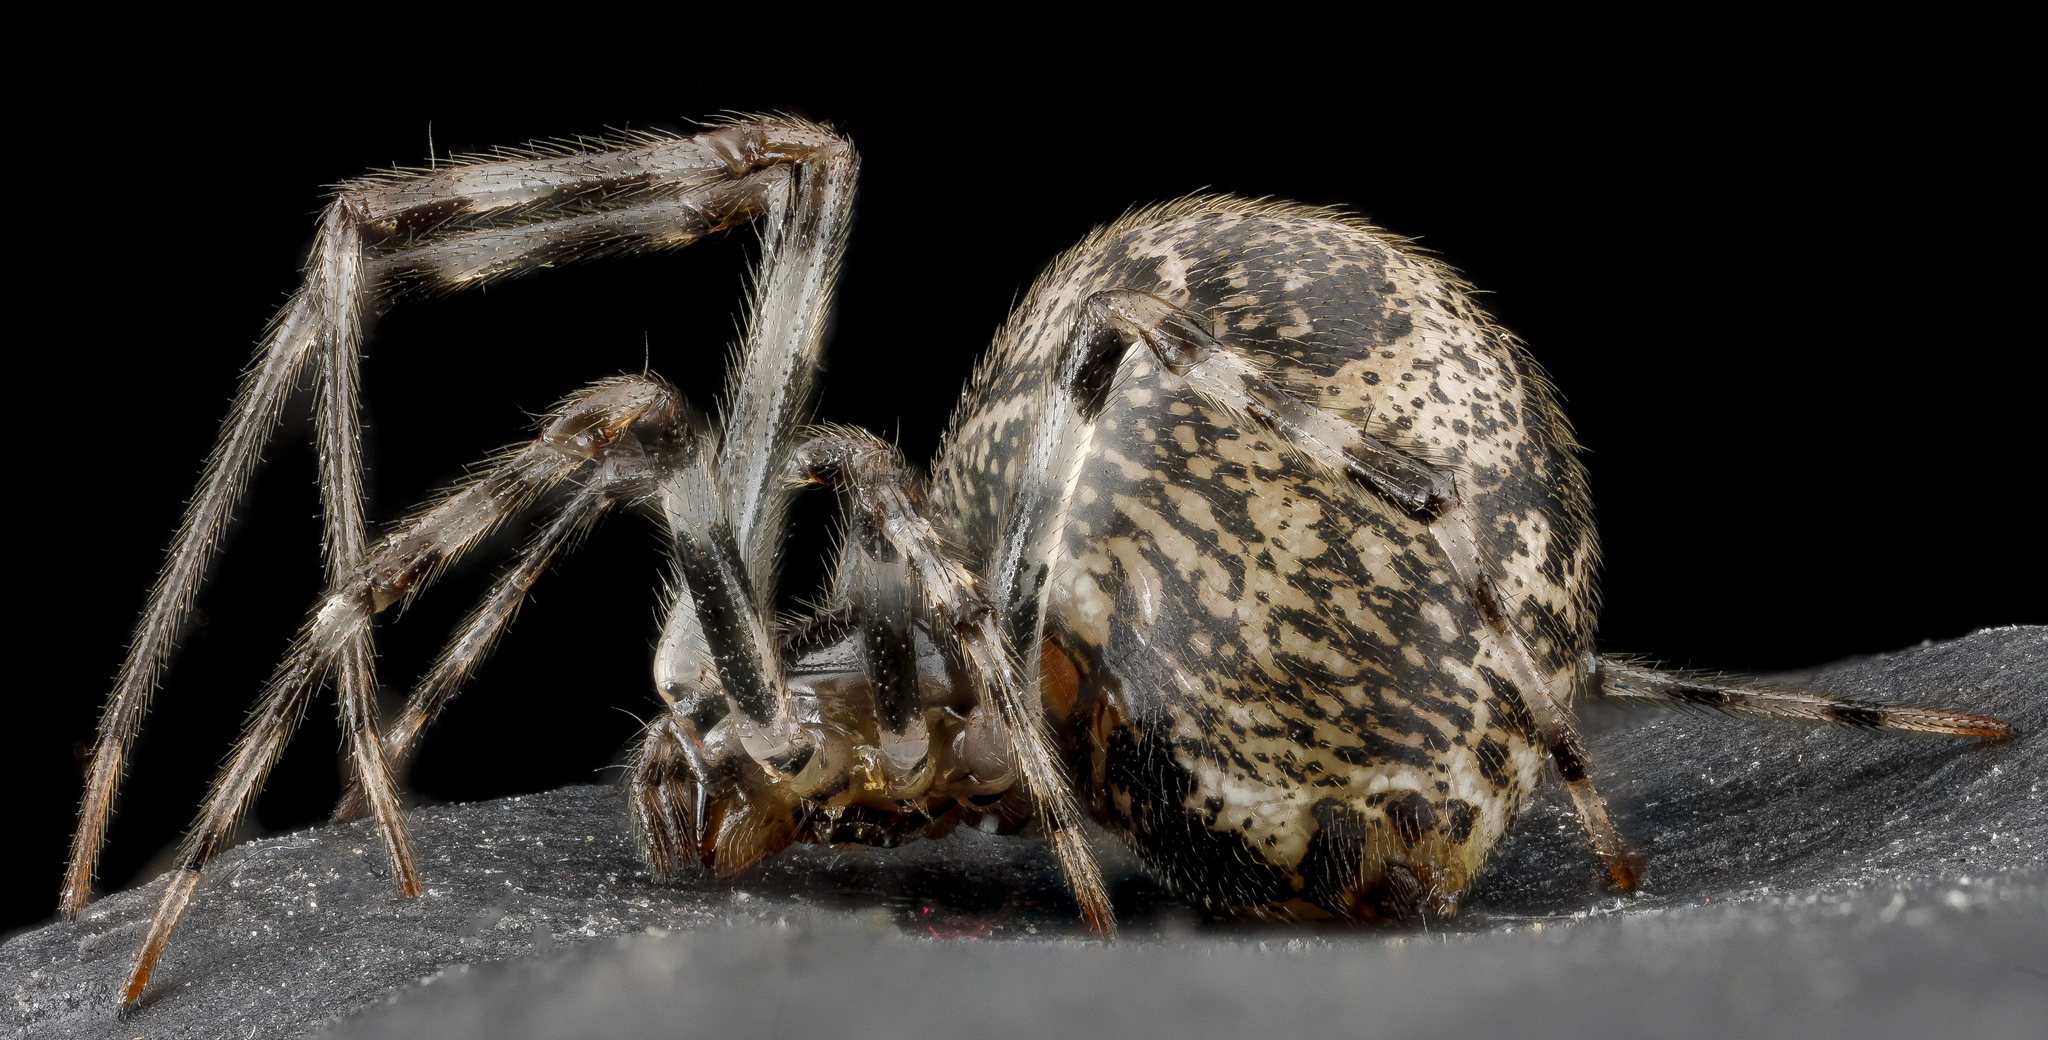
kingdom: Animalia
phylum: Arthropoda
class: Arachnida
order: Araneae
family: Theridiidae
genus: Parasteatoda
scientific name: Parasteatoda tepidariorum
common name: Common house spider
